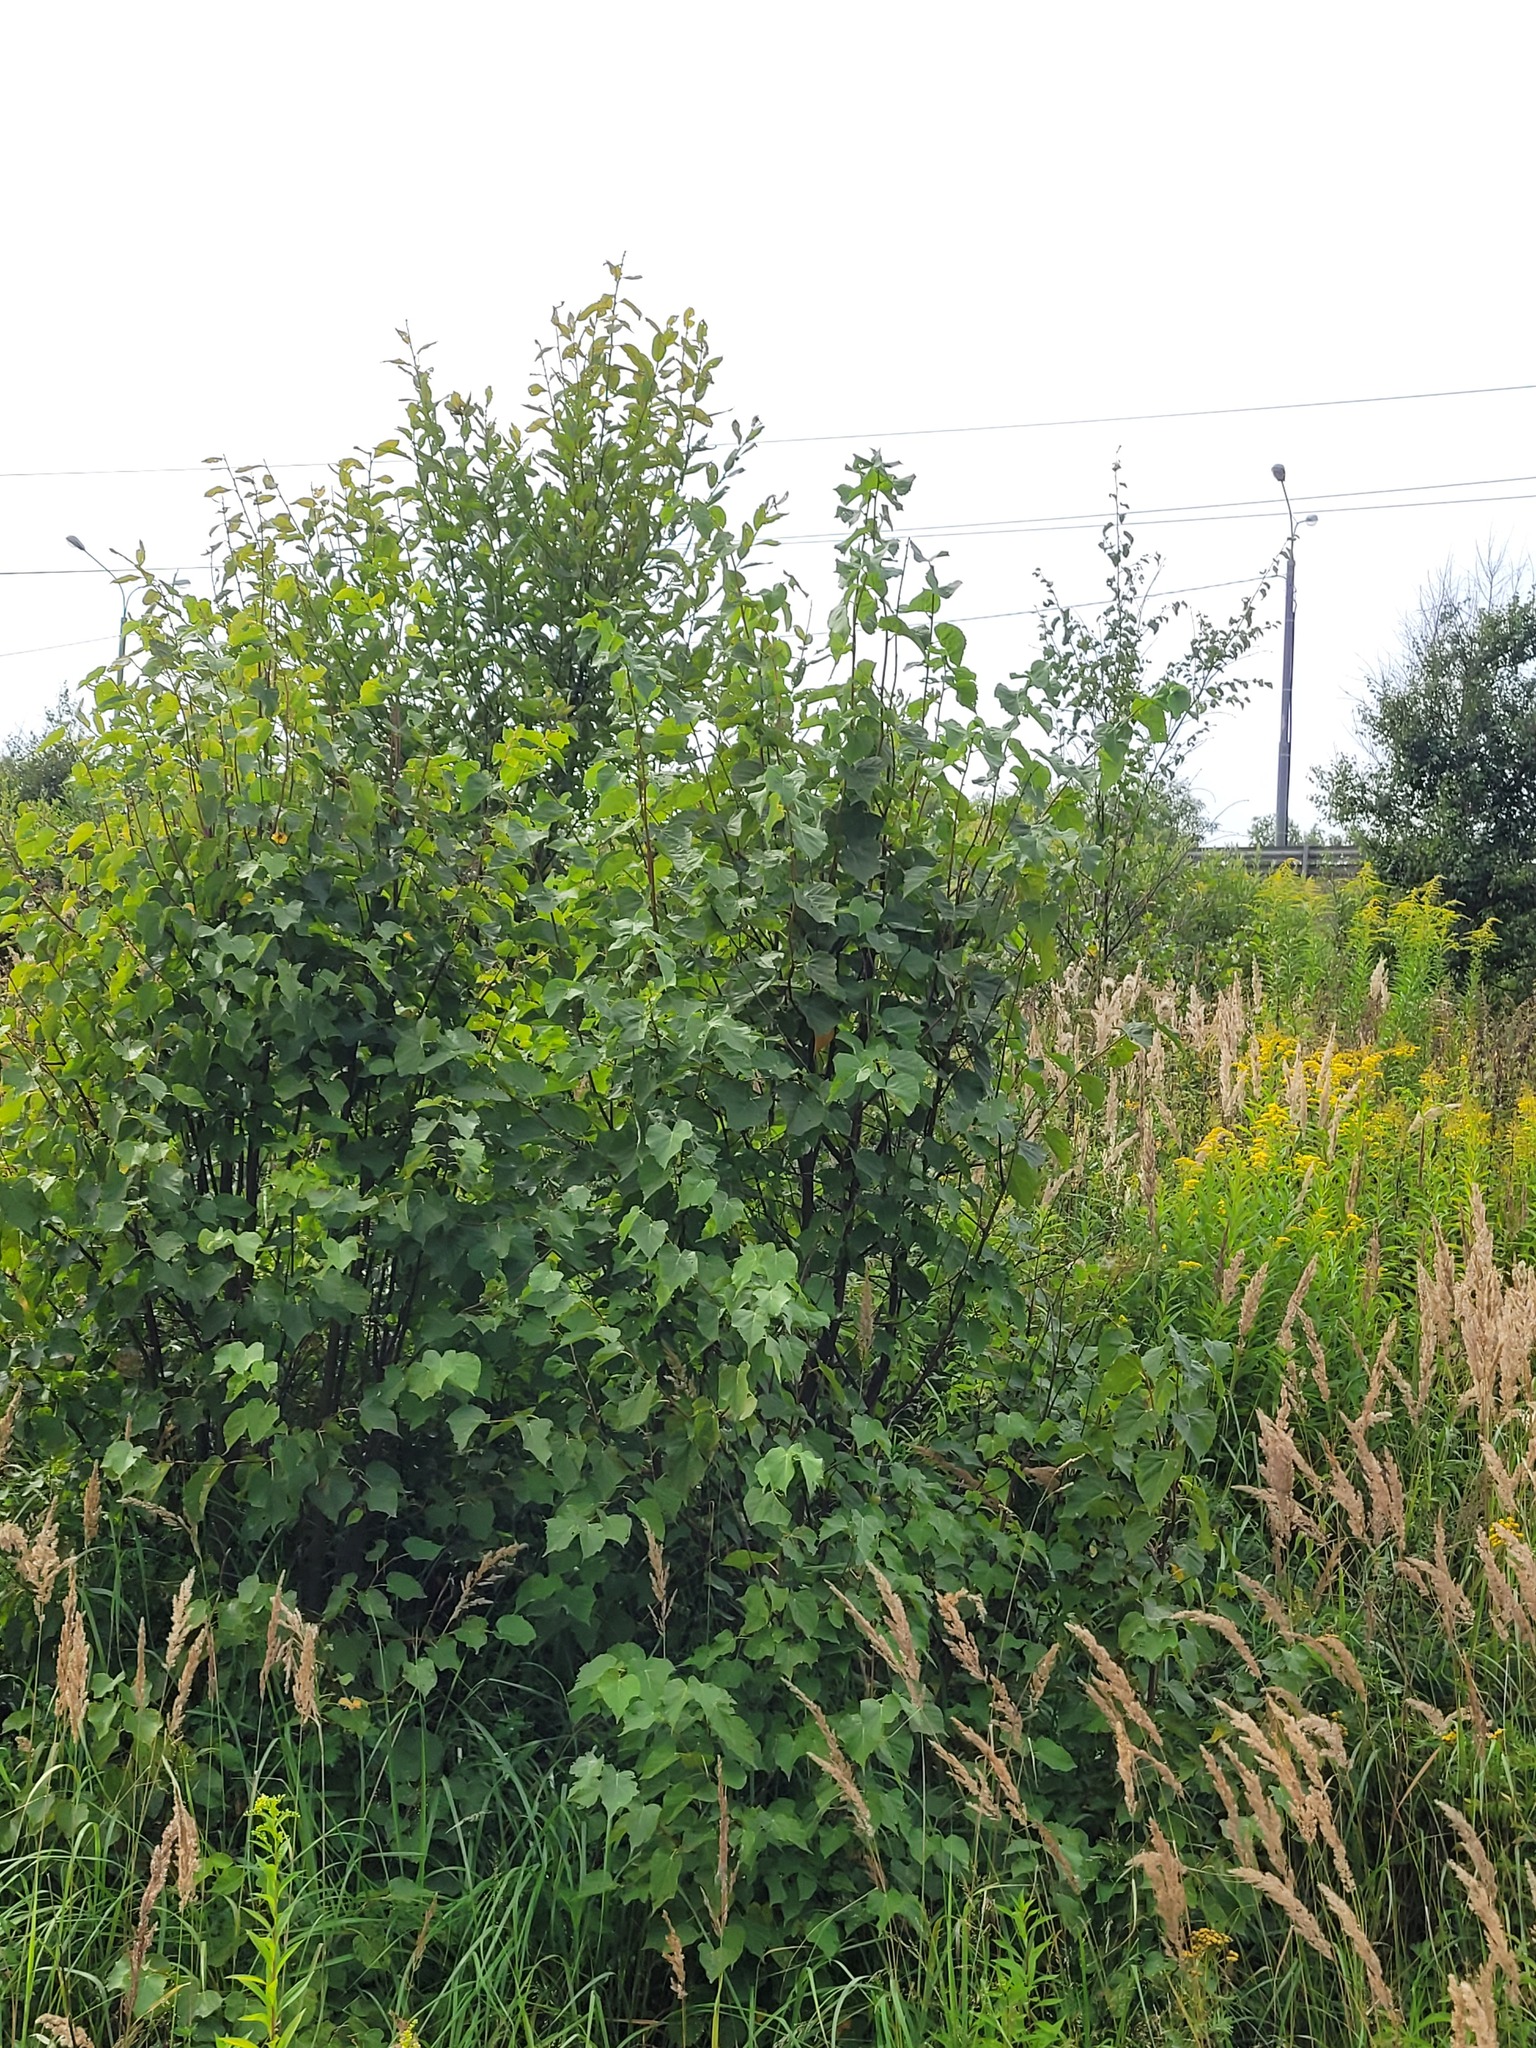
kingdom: Plantae
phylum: Tracheophyta
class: Magnoliopsida
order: Malvales
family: Malvaceae
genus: Tilia
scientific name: Tilia cordata
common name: Small-leaved lime
